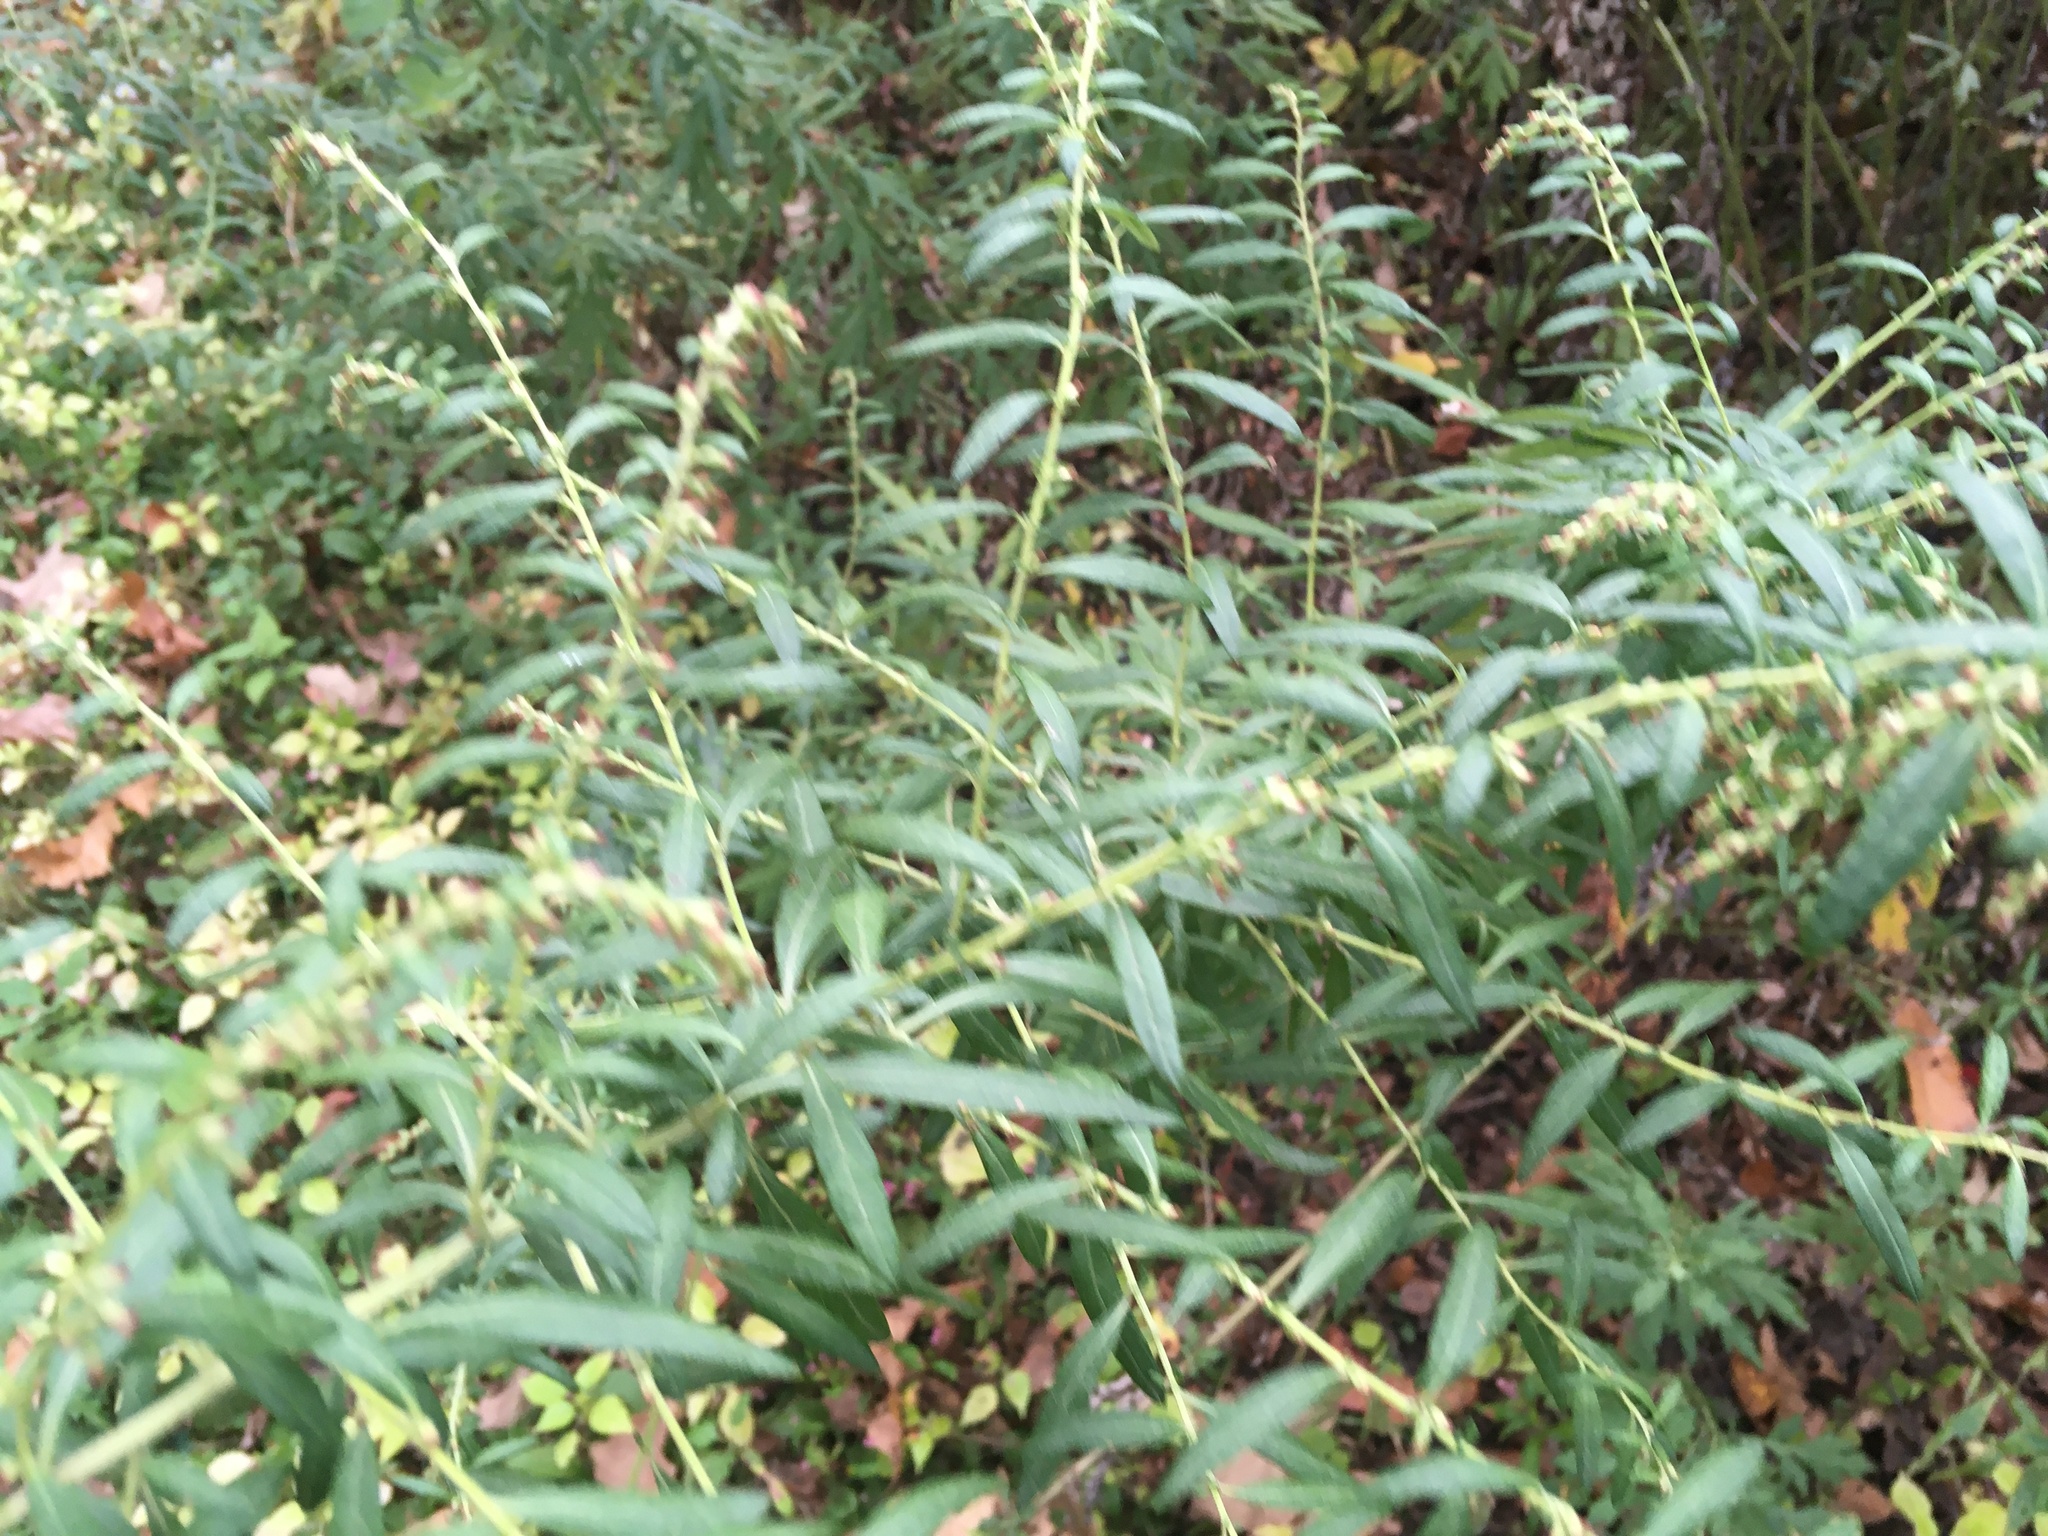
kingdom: Plantae
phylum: Tracheophyta
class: Magnoliopsida
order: Asterales
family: Asteraceae
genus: Artemisia
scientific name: Artemisia vulgaris
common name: Mugwort
